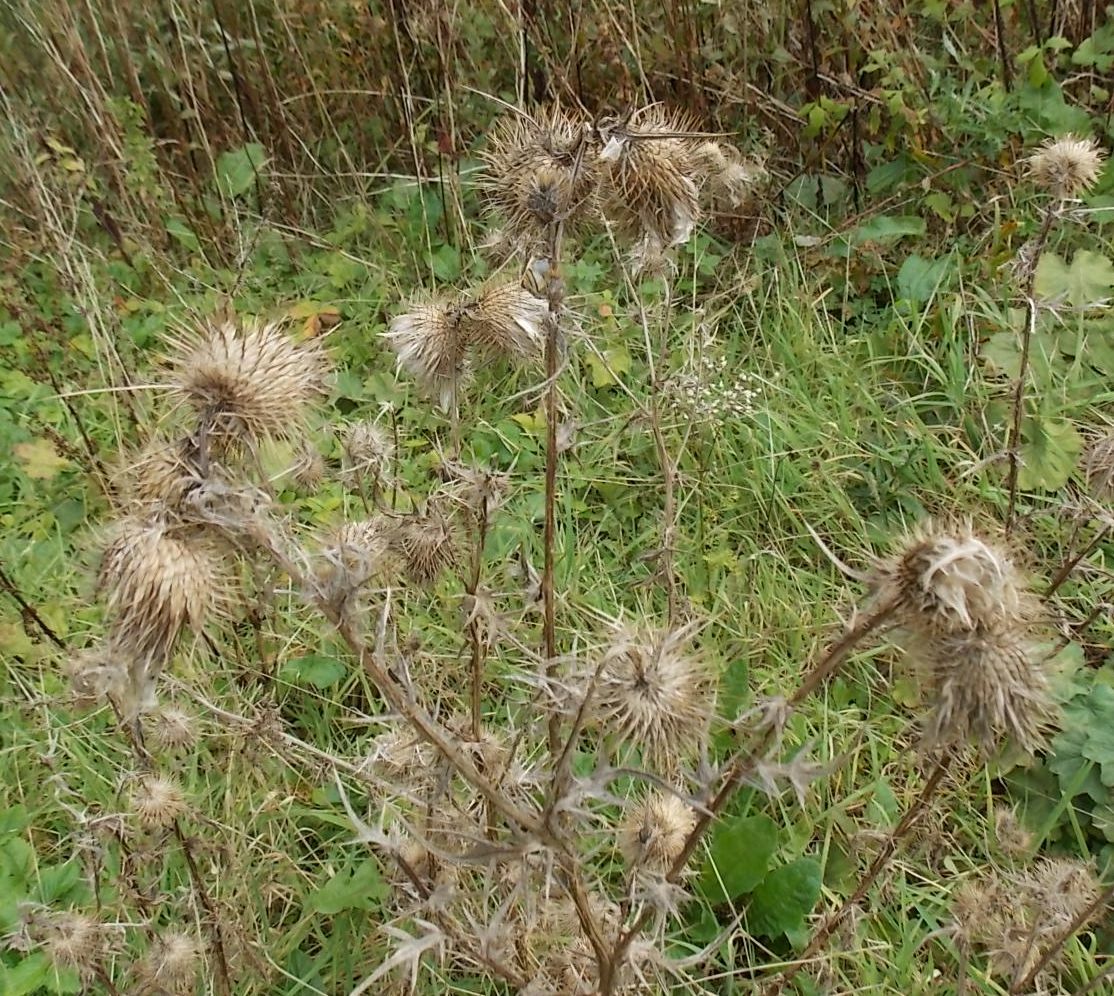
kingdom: Plantae
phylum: Tracheophyta
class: Magnoliopsida
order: Asterales
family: Asteraceae
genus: Cirsium
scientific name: Cirsium vulgare
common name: Bull thistle
